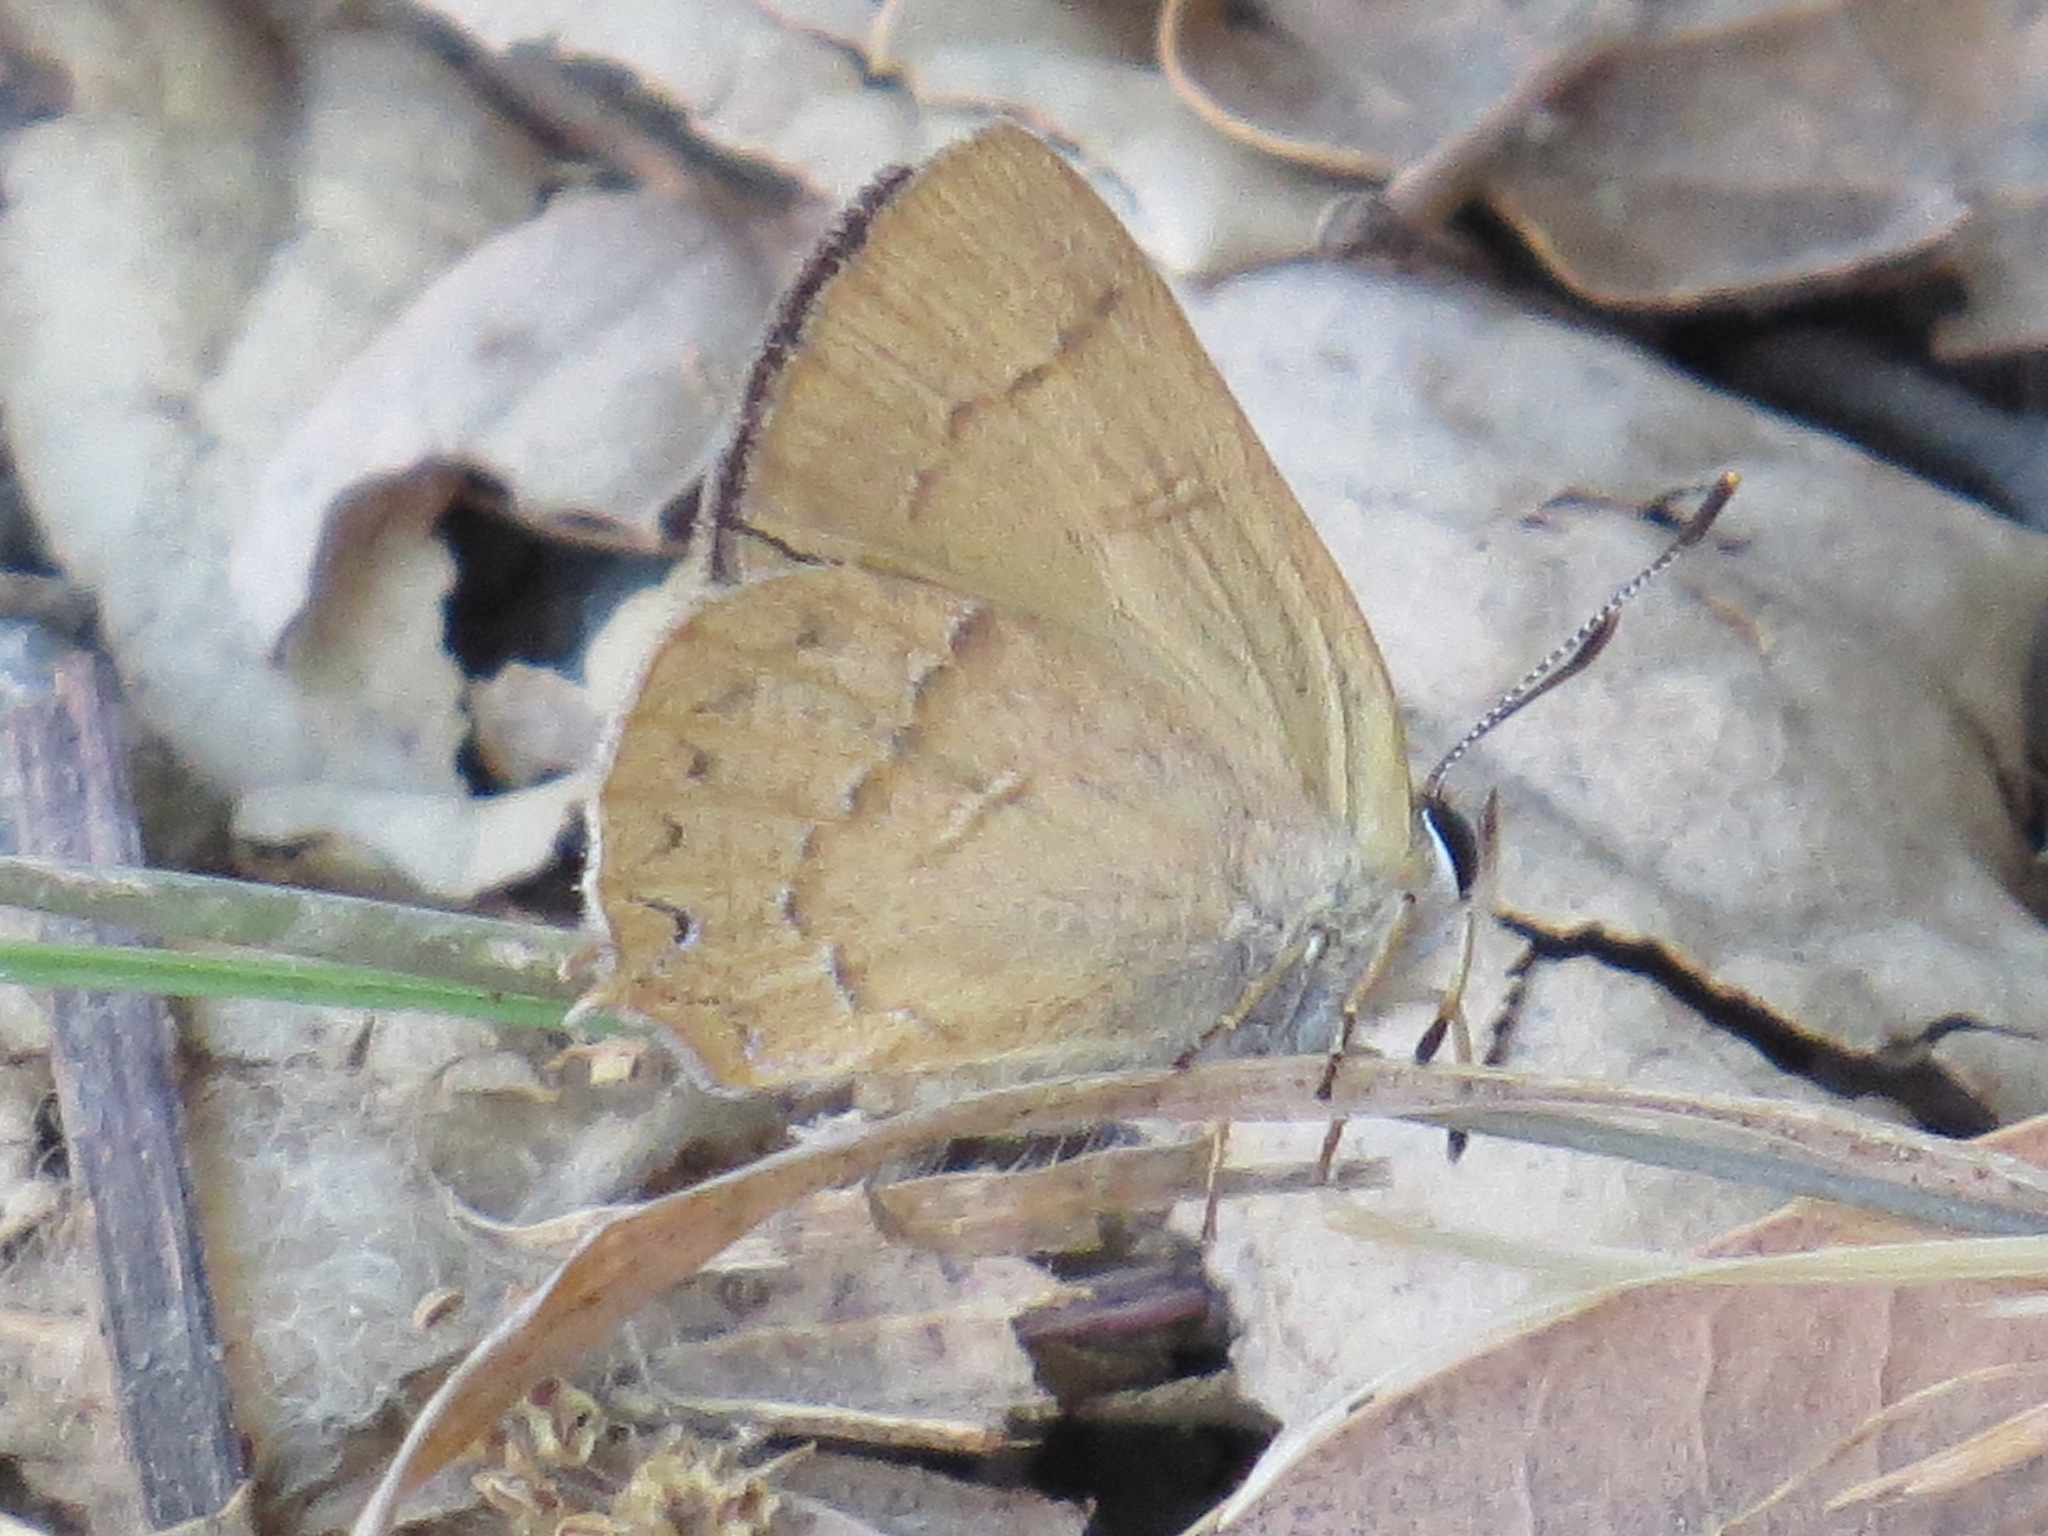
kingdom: Animalia
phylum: Arthropoda
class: Insecta
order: Lepidoptera
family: Lycaenidae
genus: Habrodais
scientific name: Habrodais grunus
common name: Golden hairstreak
